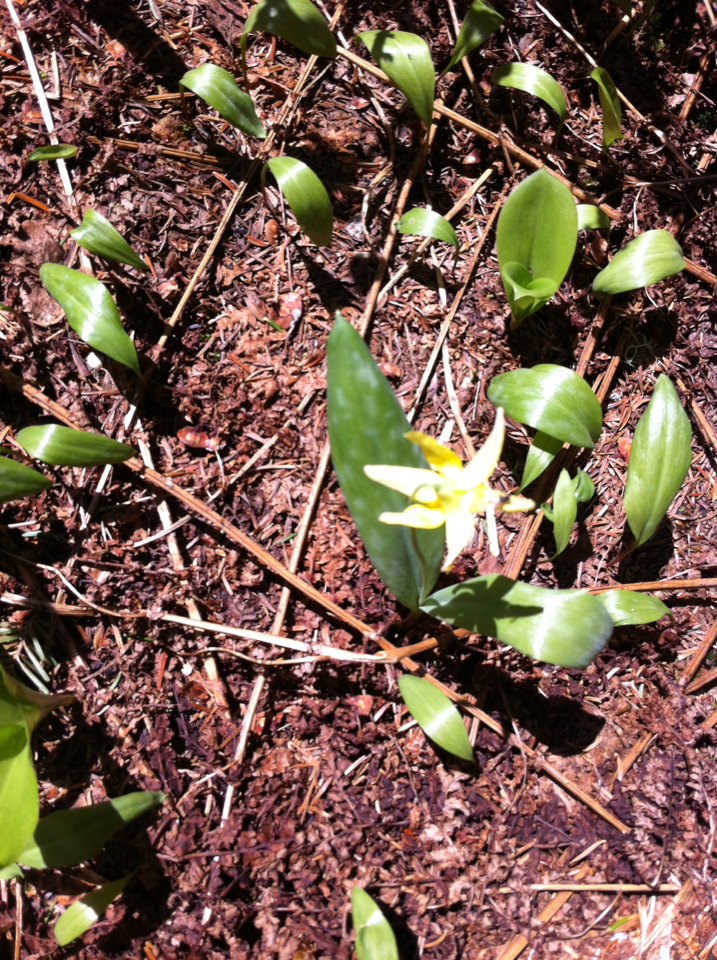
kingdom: Plantae
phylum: Tracheophyta
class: Liliopsida
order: Liliales
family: Liliaceae
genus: Erythronium
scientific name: Erythronium americanum
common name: Yellow adder's-tongue
